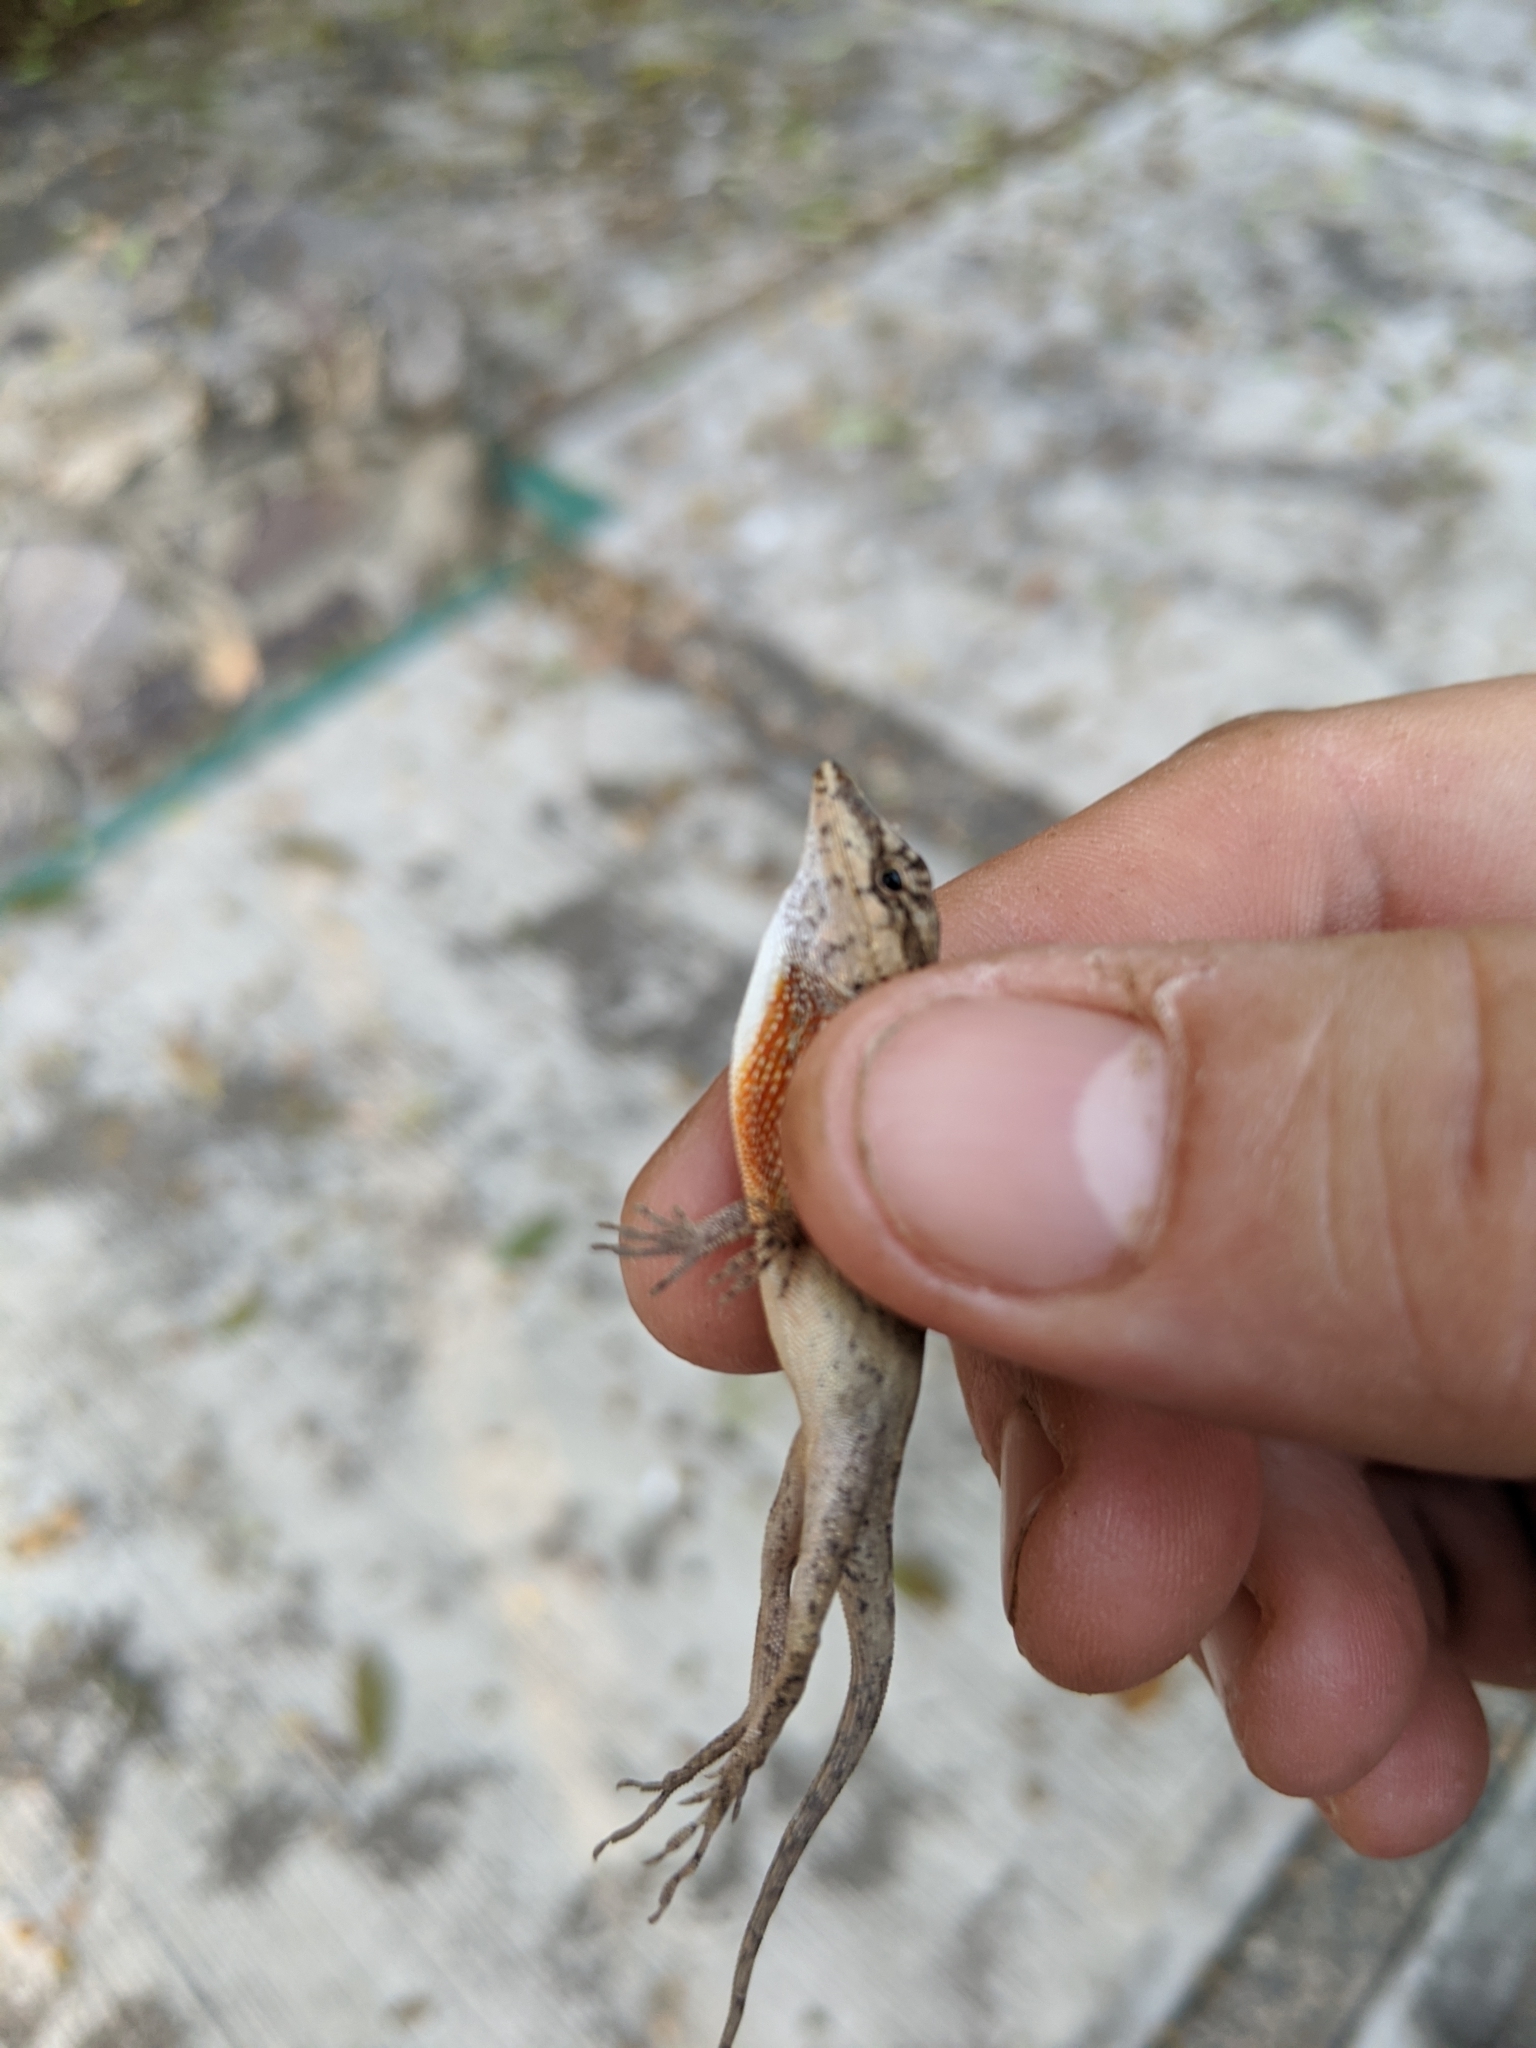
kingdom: Animalia
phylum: Chordata
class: Squamata
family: Dactyloidae
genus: Anolis
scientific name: Anolis nebulosus
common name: Clouded anole
